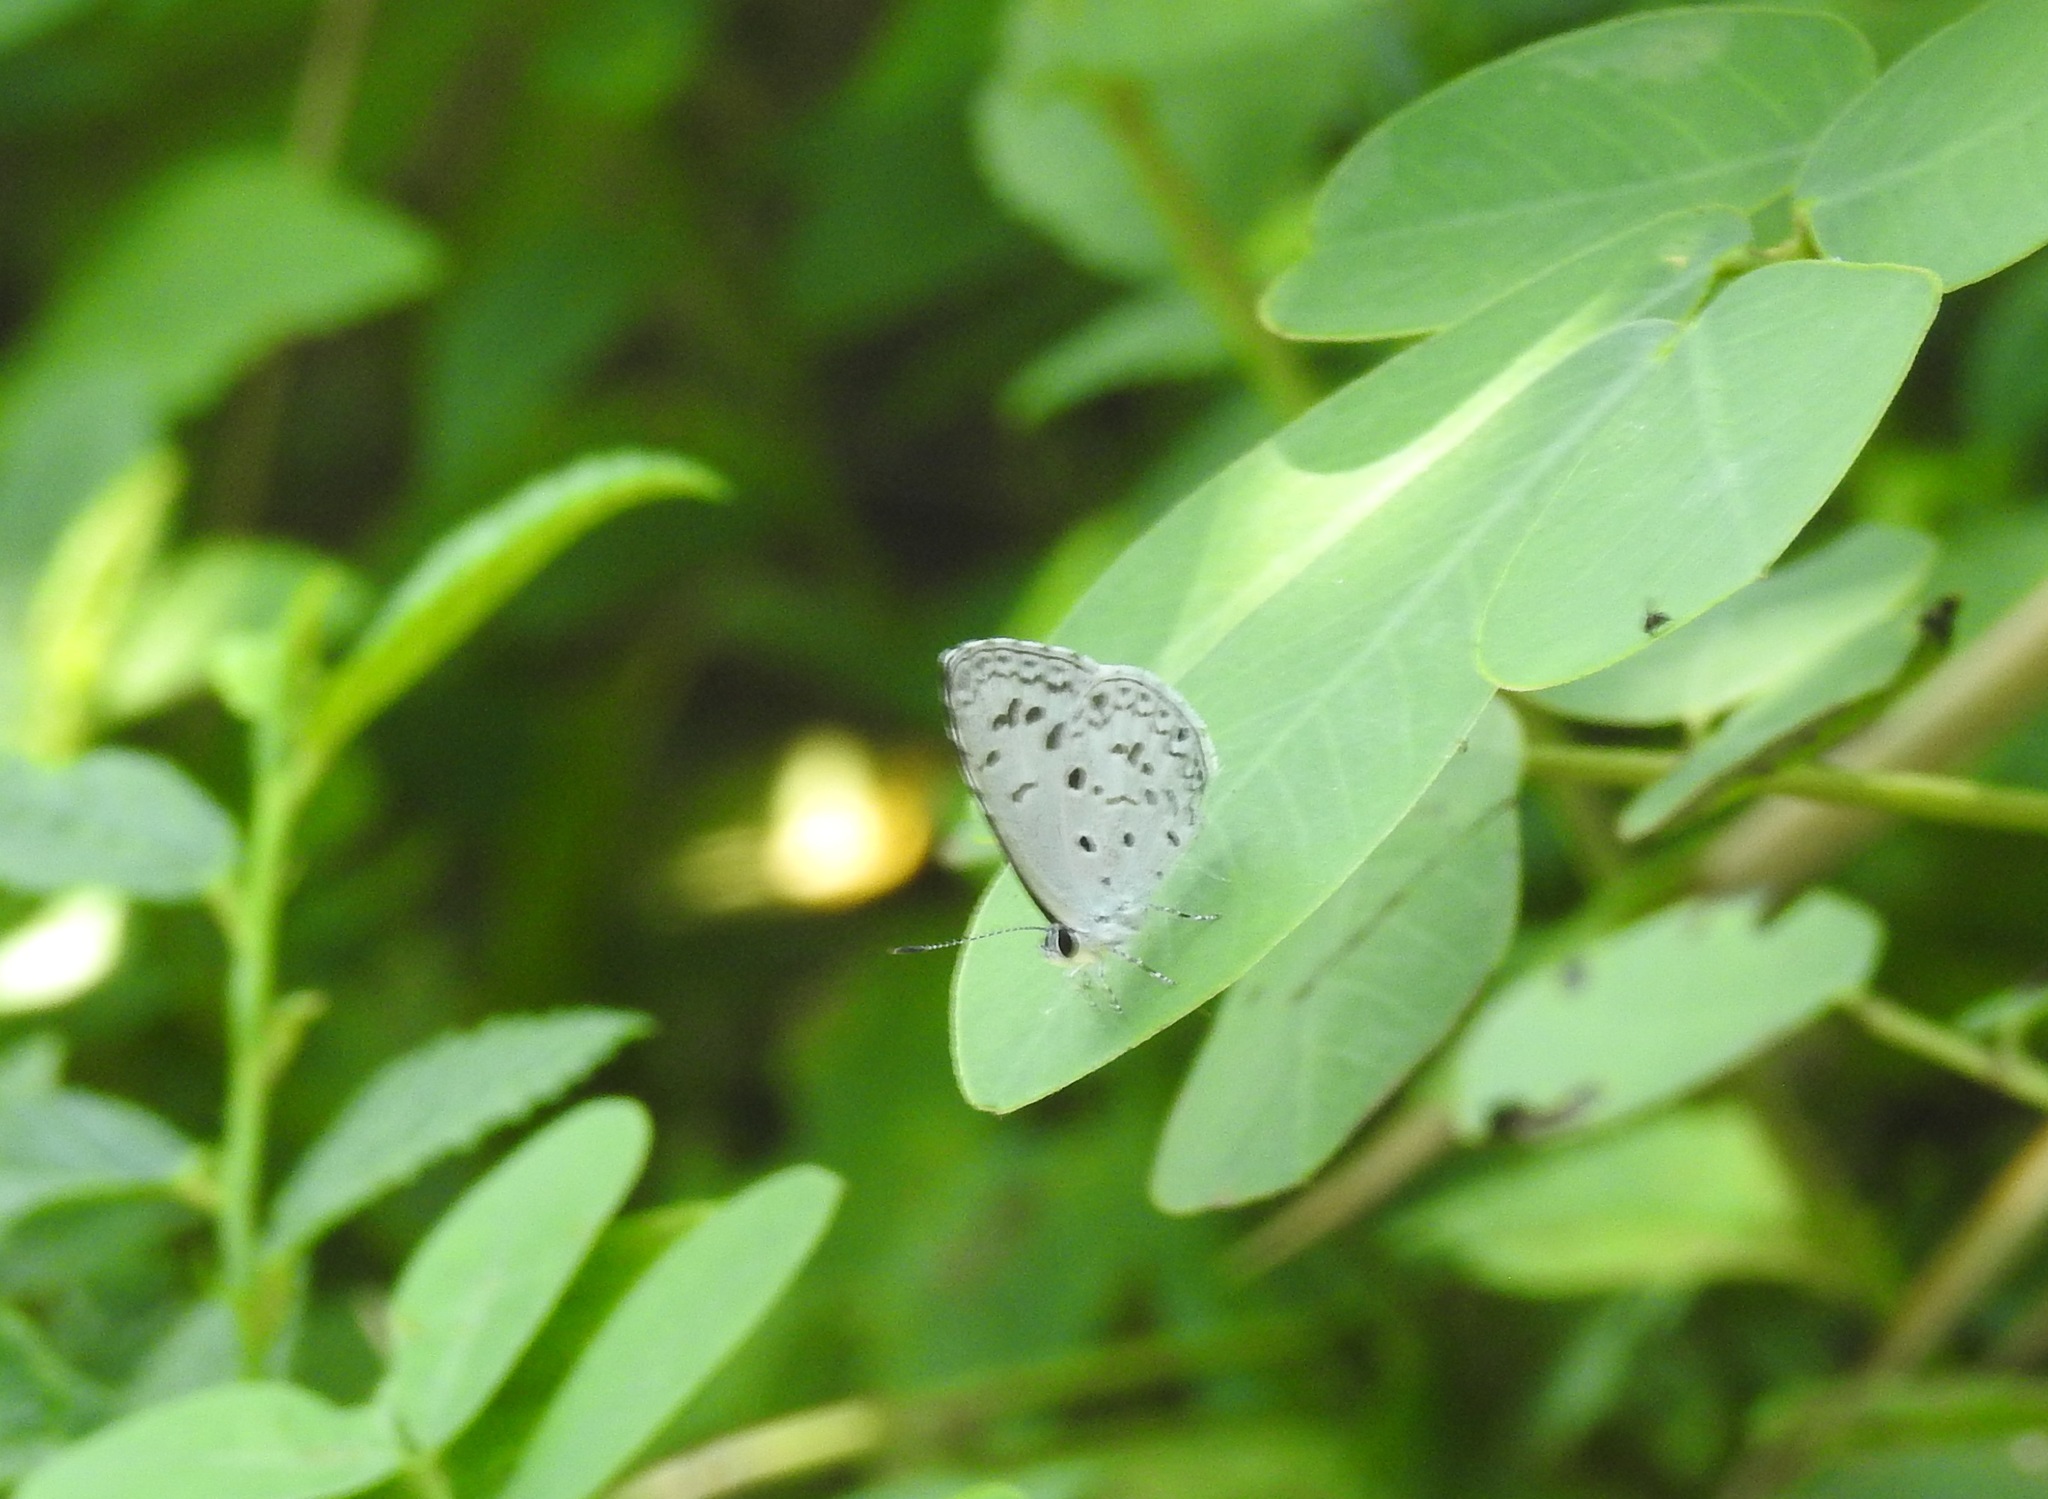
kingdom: Animalia
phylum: Arthropoda
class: Insecta
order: Lepidoptera
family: Lycaenidae
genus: Acytolepis
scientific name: Acytolepis puspa
